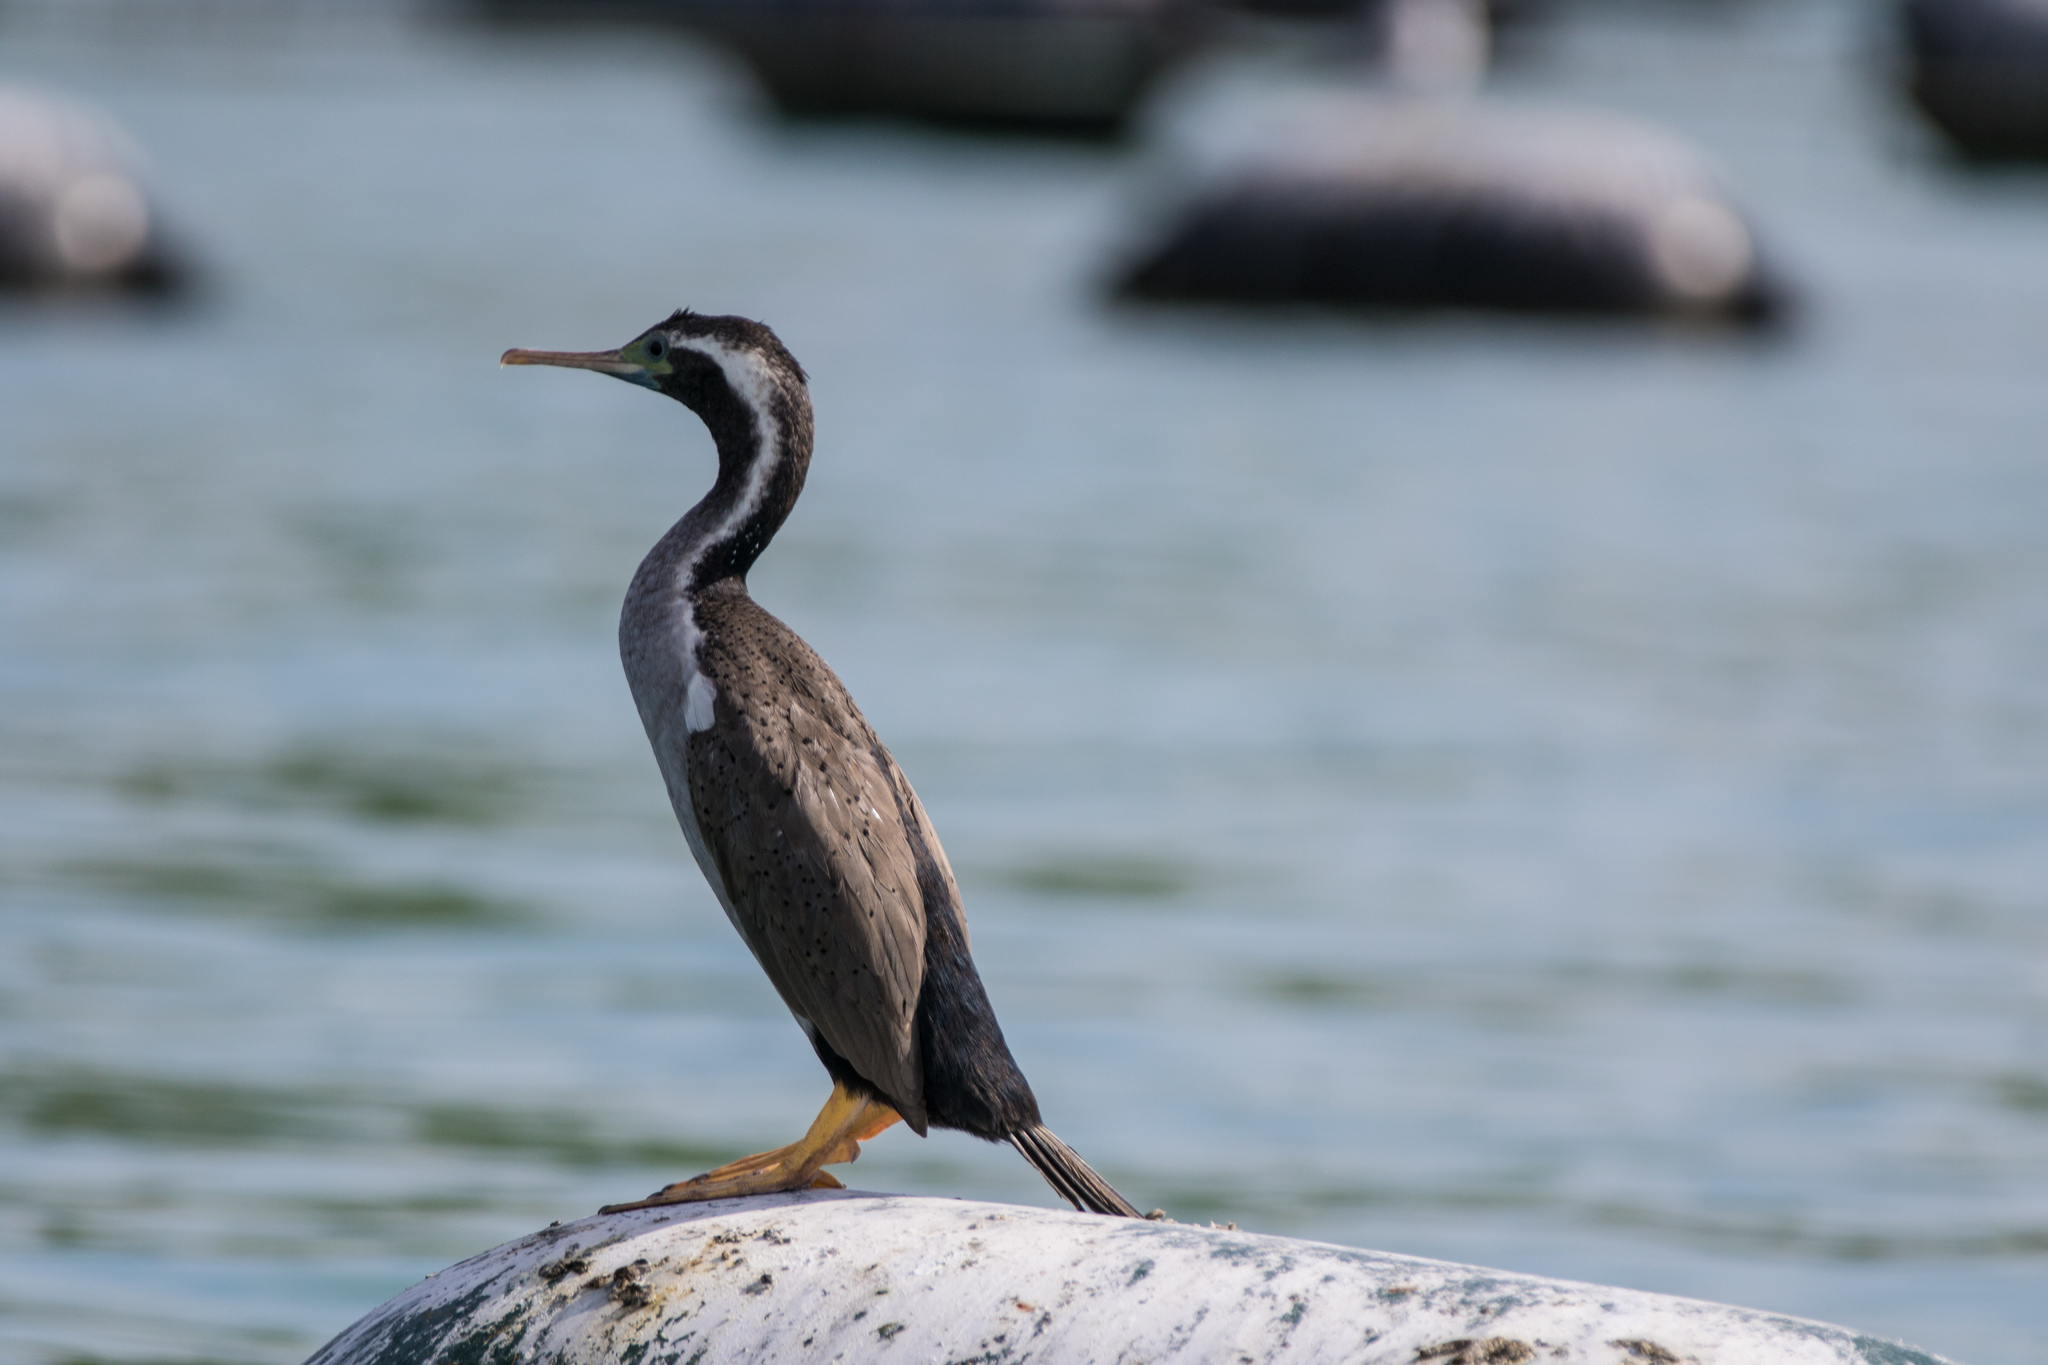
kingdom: Animalia
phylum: Chordata
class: Aves
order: Suliformes
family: Phalacrocoracidae
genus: Phalacrocorax
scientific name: Phalacrocorax punctatus
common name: Spotted shag
